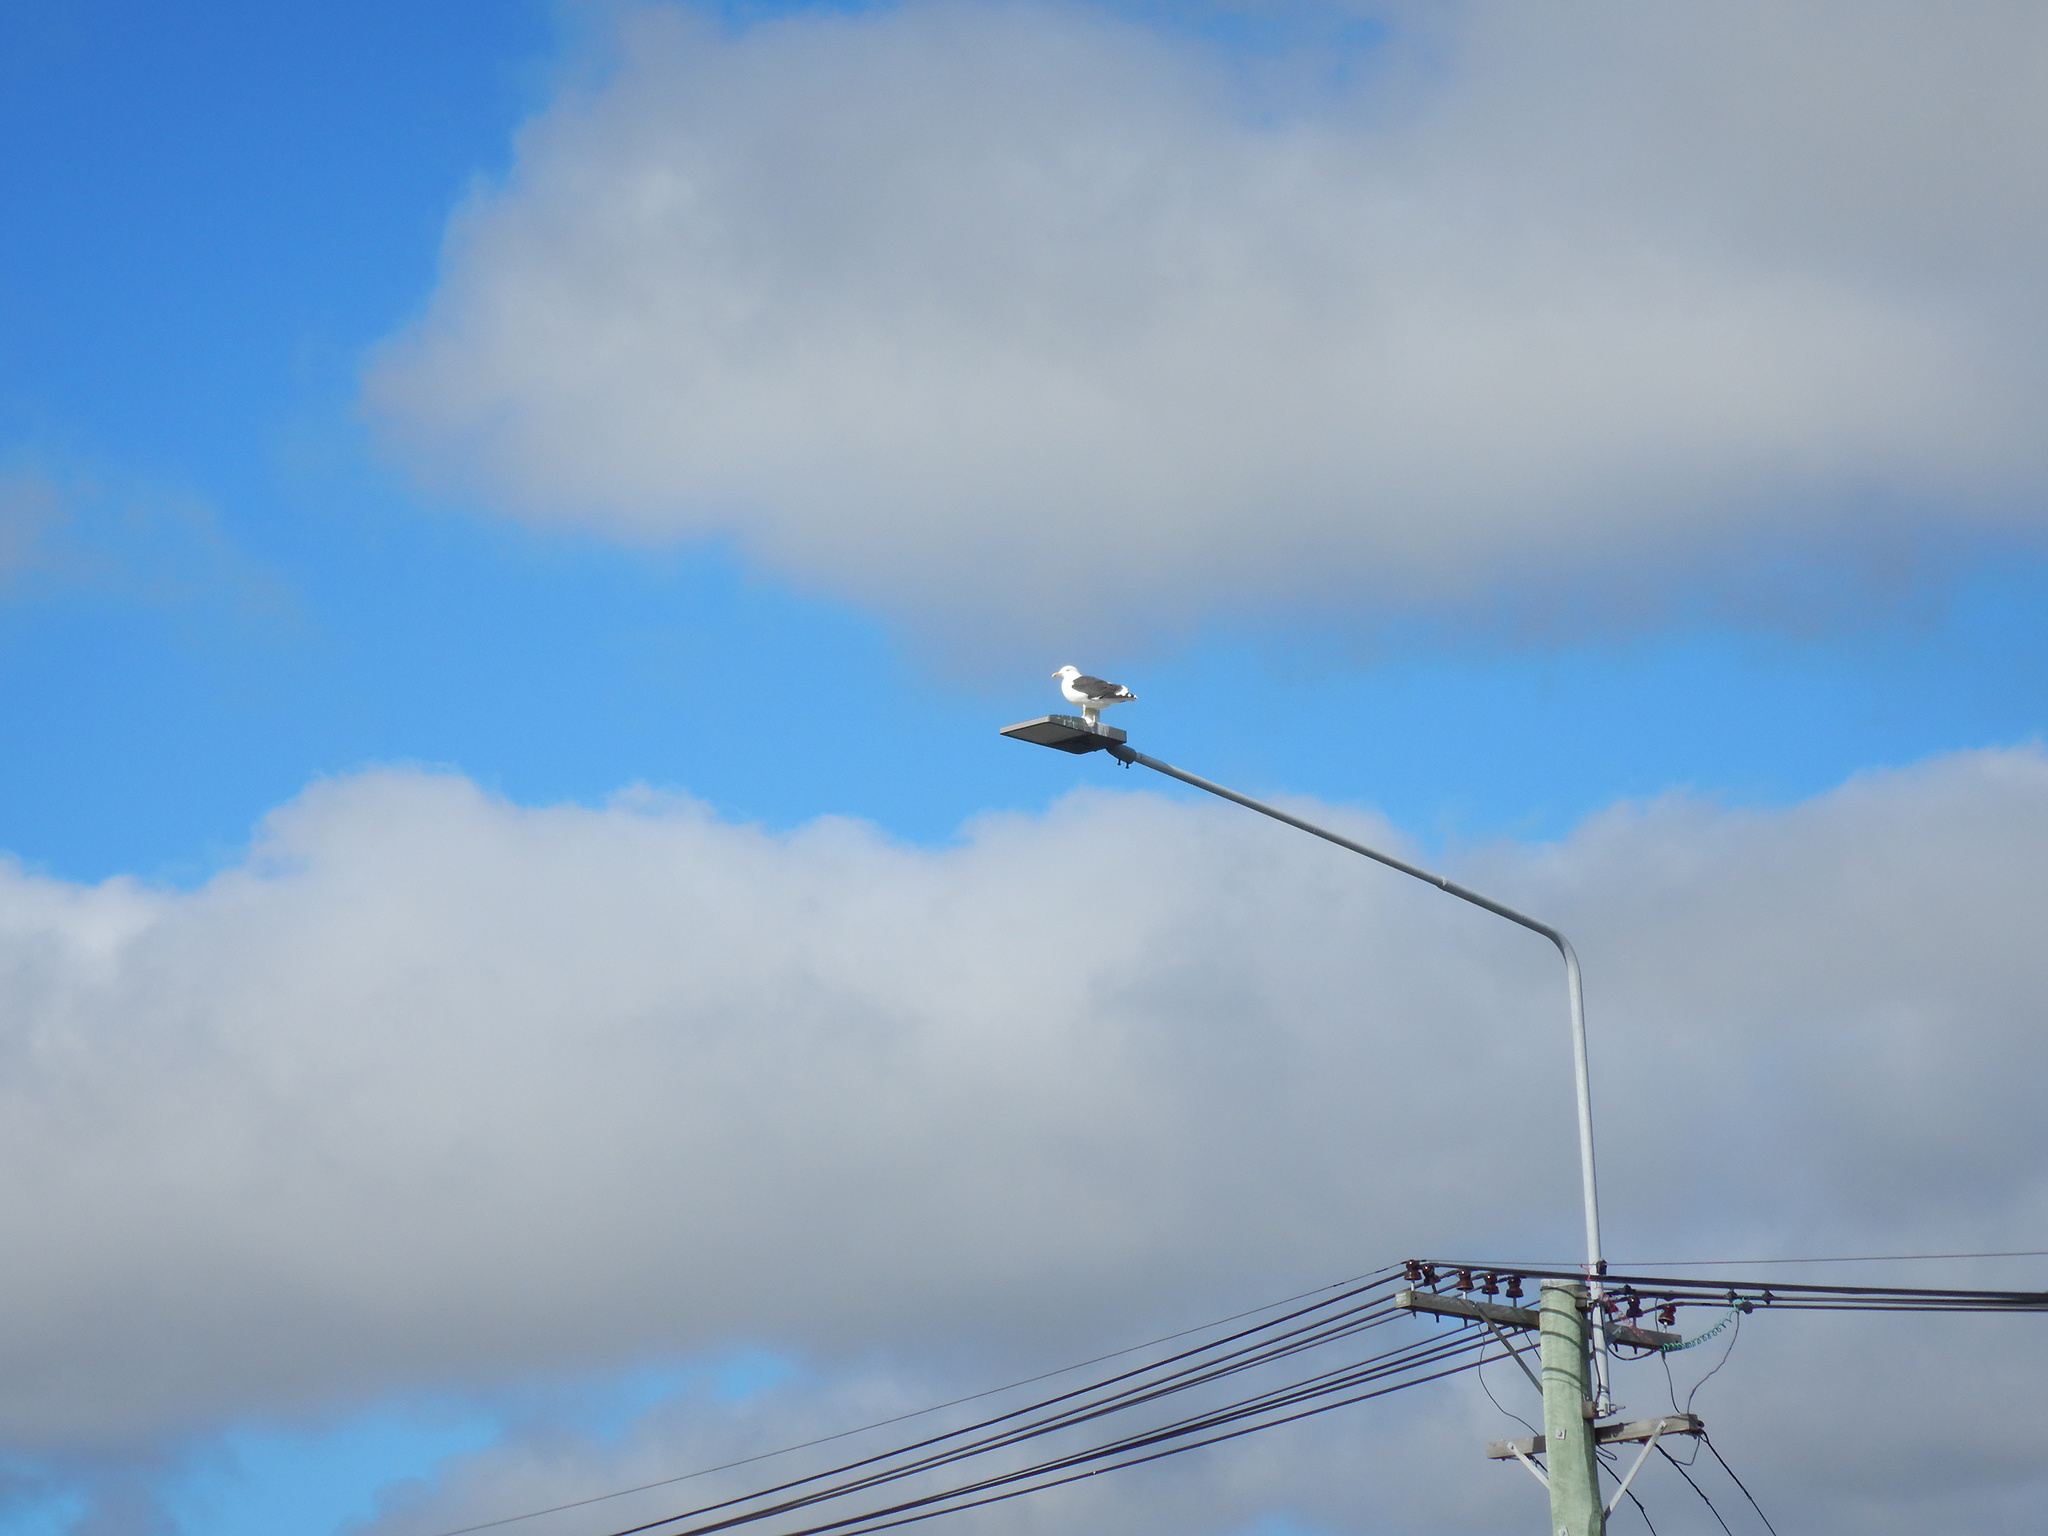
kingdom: Animalia
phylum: Chordata
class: Aves
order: Charadriiformes
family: Laridae
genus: Larus
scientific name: Larus dominicanus
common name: Kelp gull
